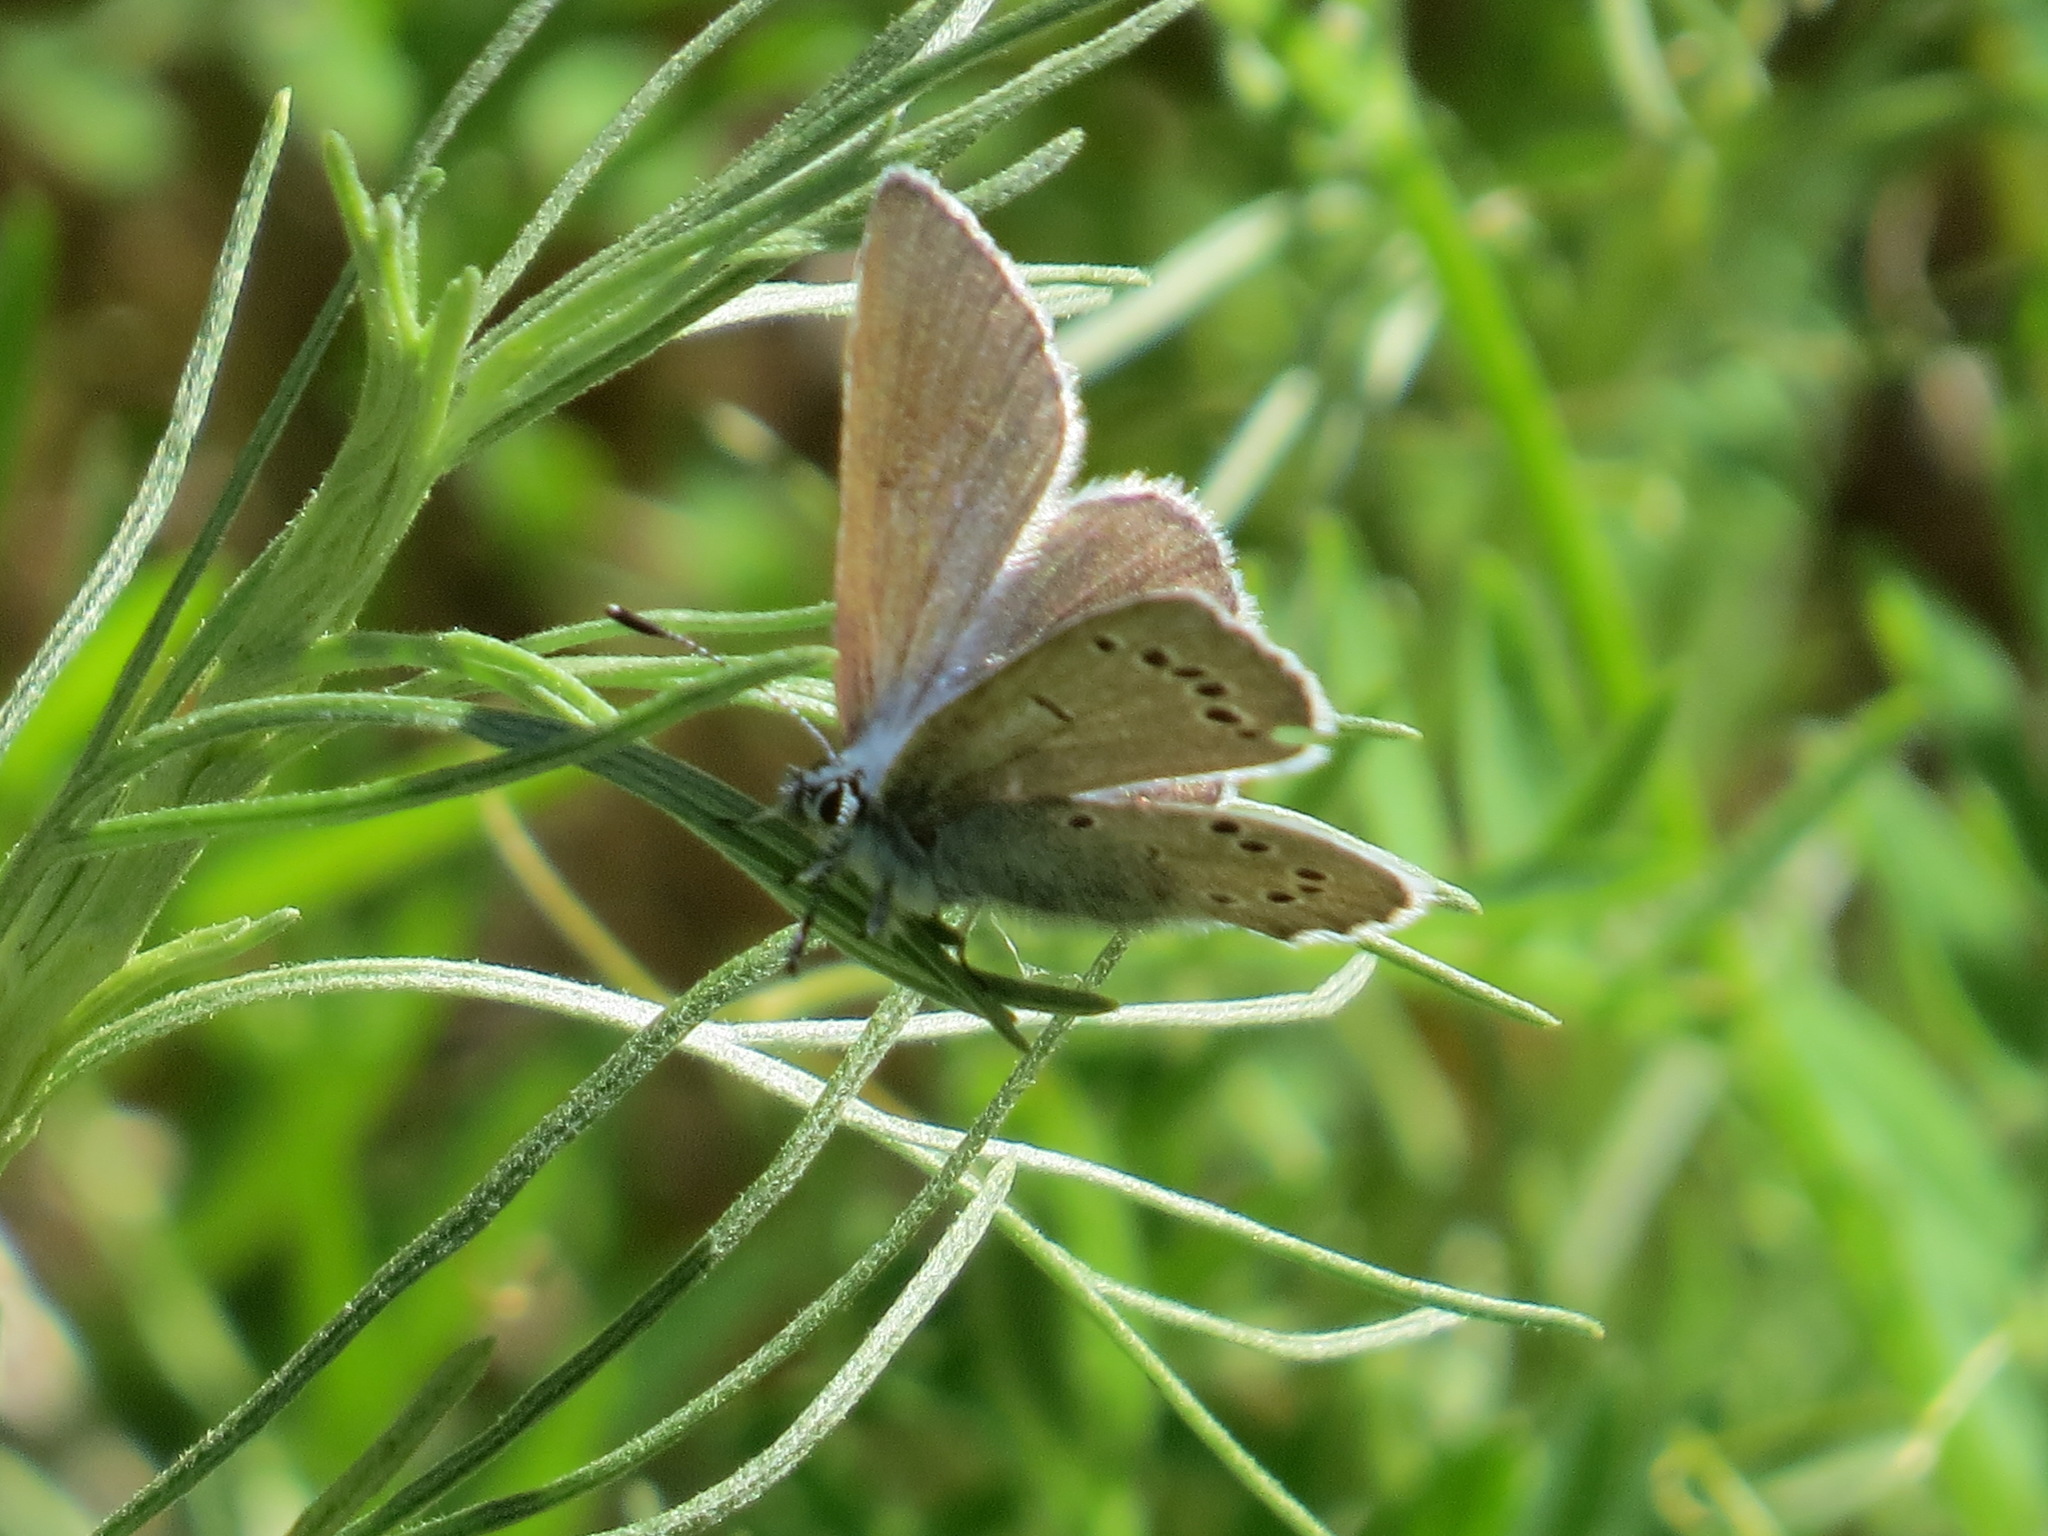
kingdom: Animalia
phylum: Arthropoda
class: Insecta
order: Lepidoptera
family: Lycaenidae
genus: Glaucopsyche
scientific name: Glaucopsyche lygdamus
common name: Silvery blue
